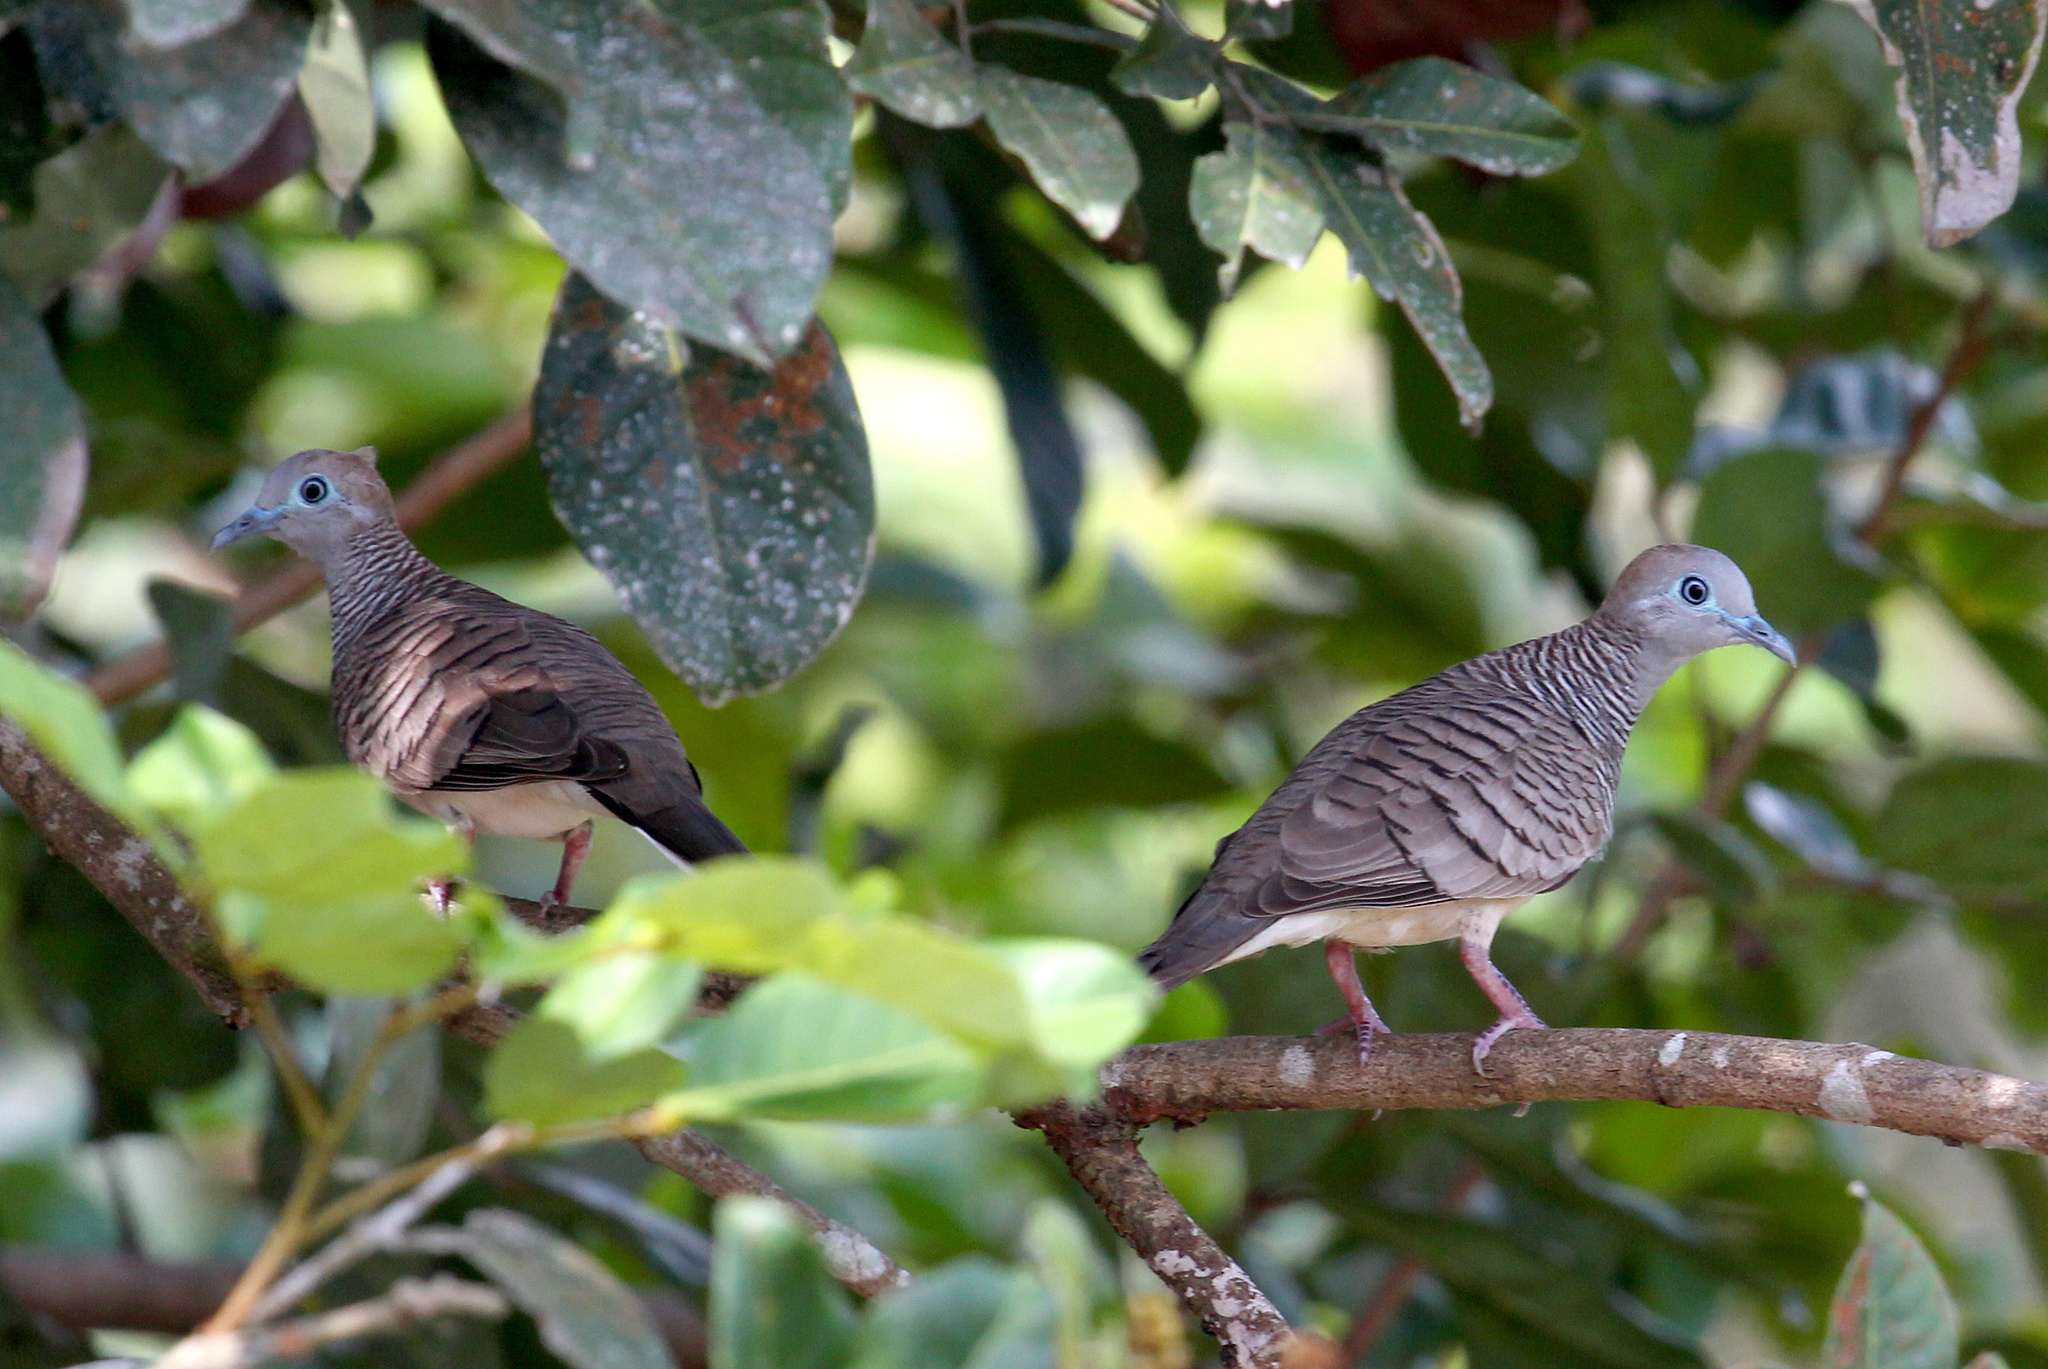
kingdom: Animalia
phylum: Chordata
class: Aves
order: Columbiformes
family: Columbidae
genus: Geopelia
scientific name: Geopelia striata
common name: Zebra dove
